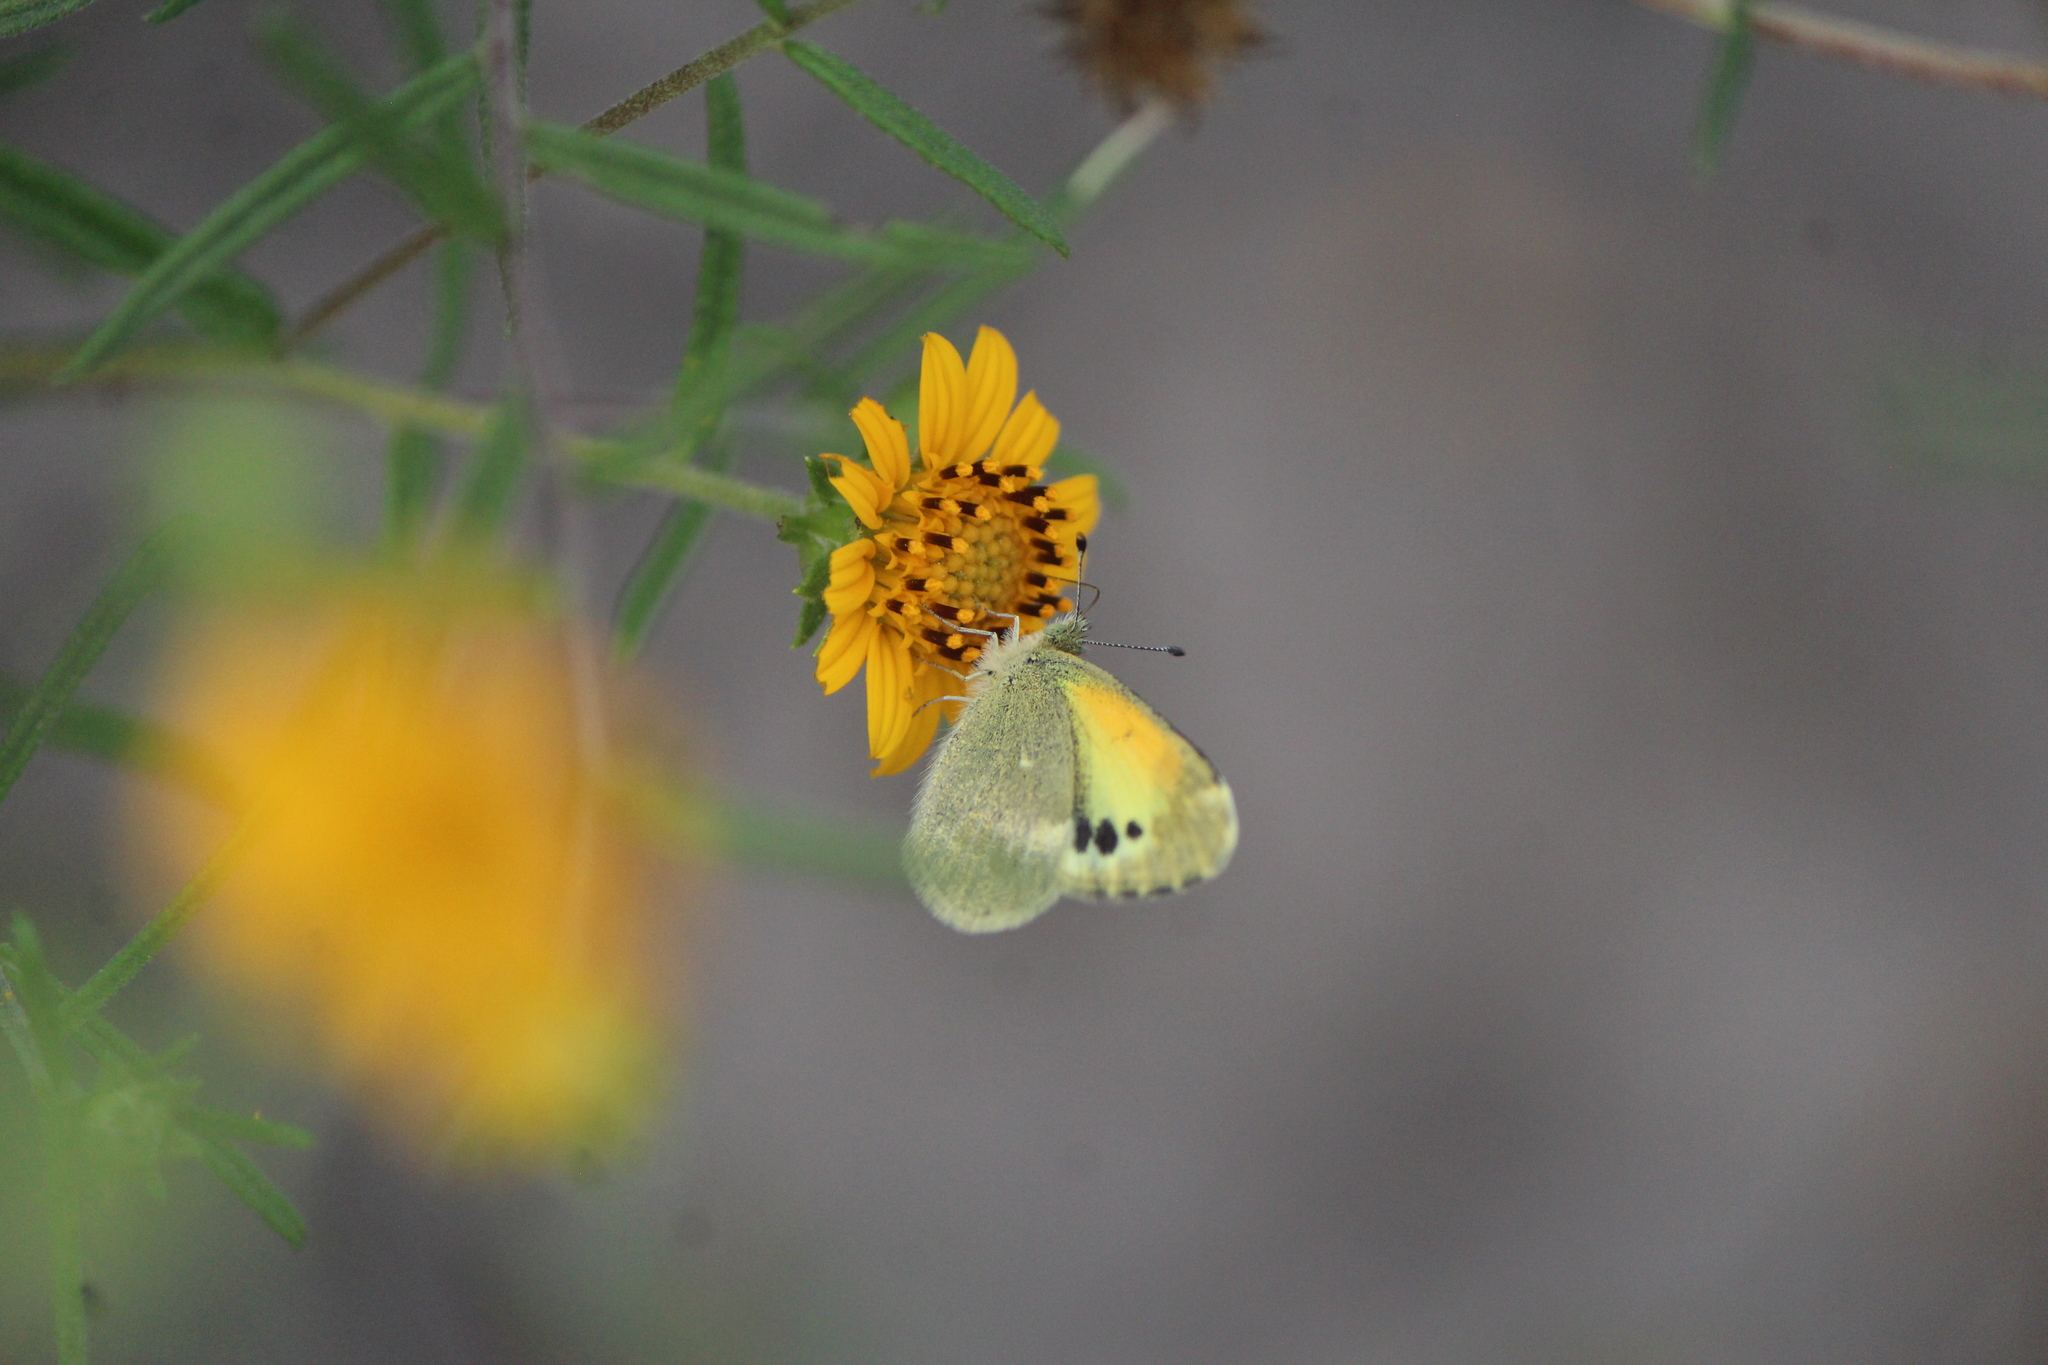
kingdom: Animalia
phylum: Arthropoda
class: Insecta
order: Lepidoptera
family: Pieridae
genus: Nathalis
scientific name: Nathalis iole
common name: Dainty sulphur
